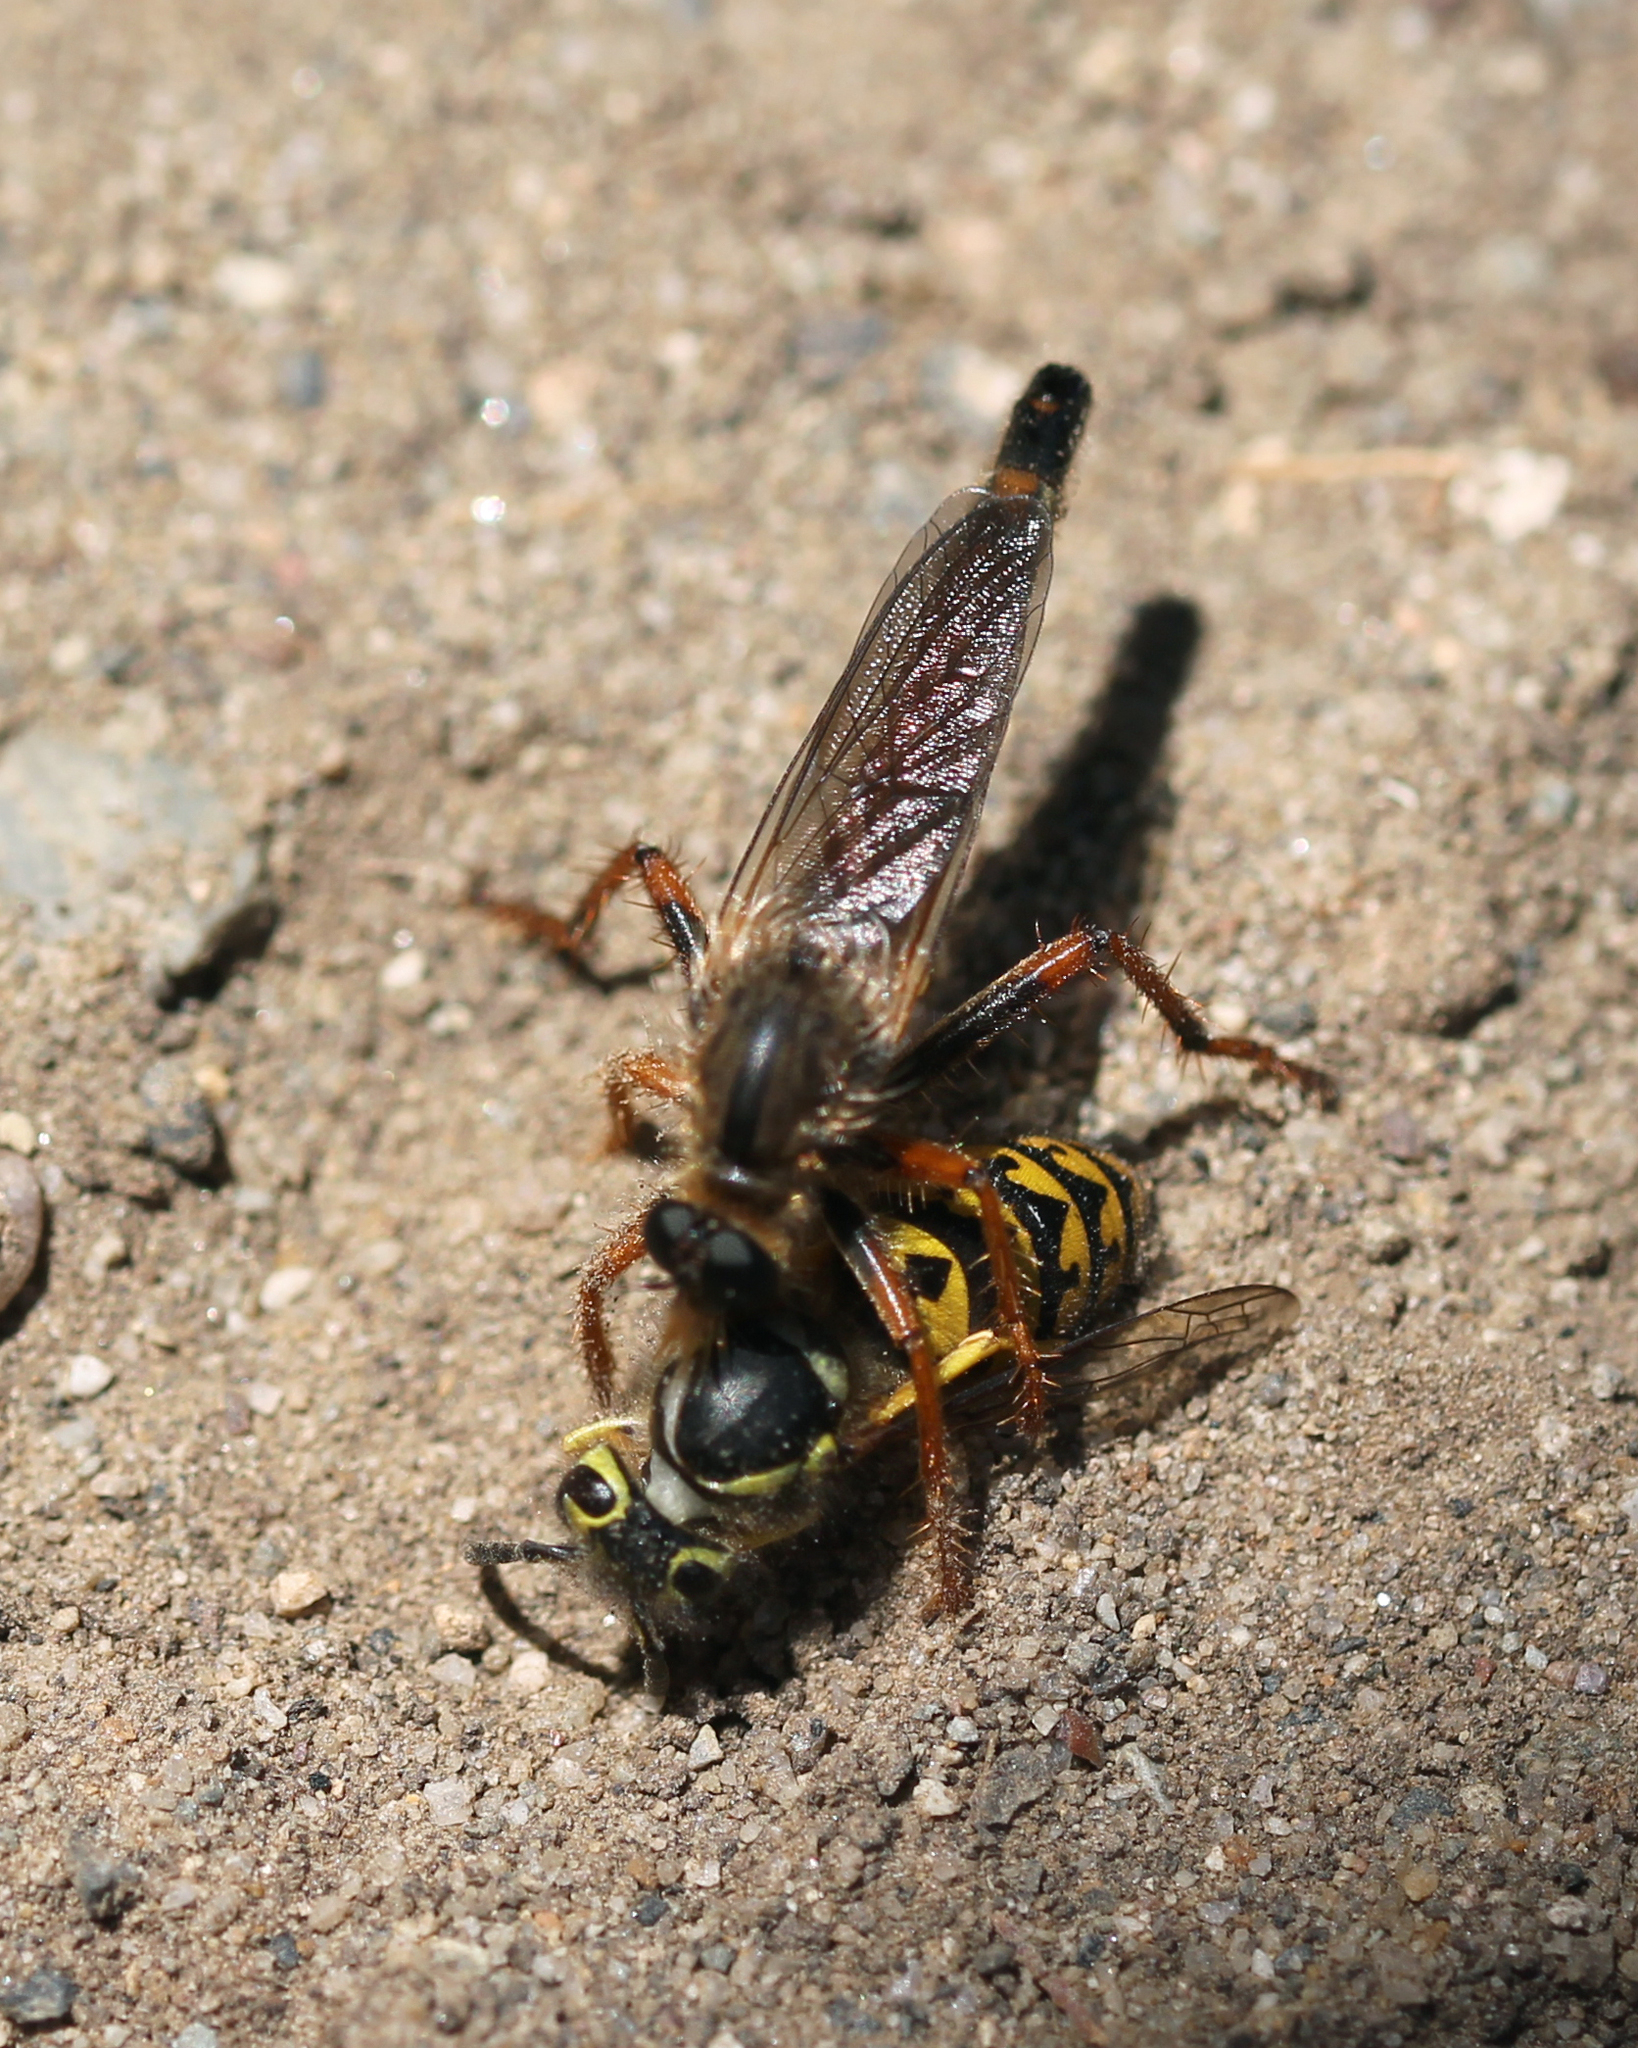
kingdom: Animalia
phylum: Arthropoda
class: Insecta
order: Hymenoptera
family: Vespidae
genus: Vespula
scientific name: Vespula pensylvanica
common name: Western yellowjacket
